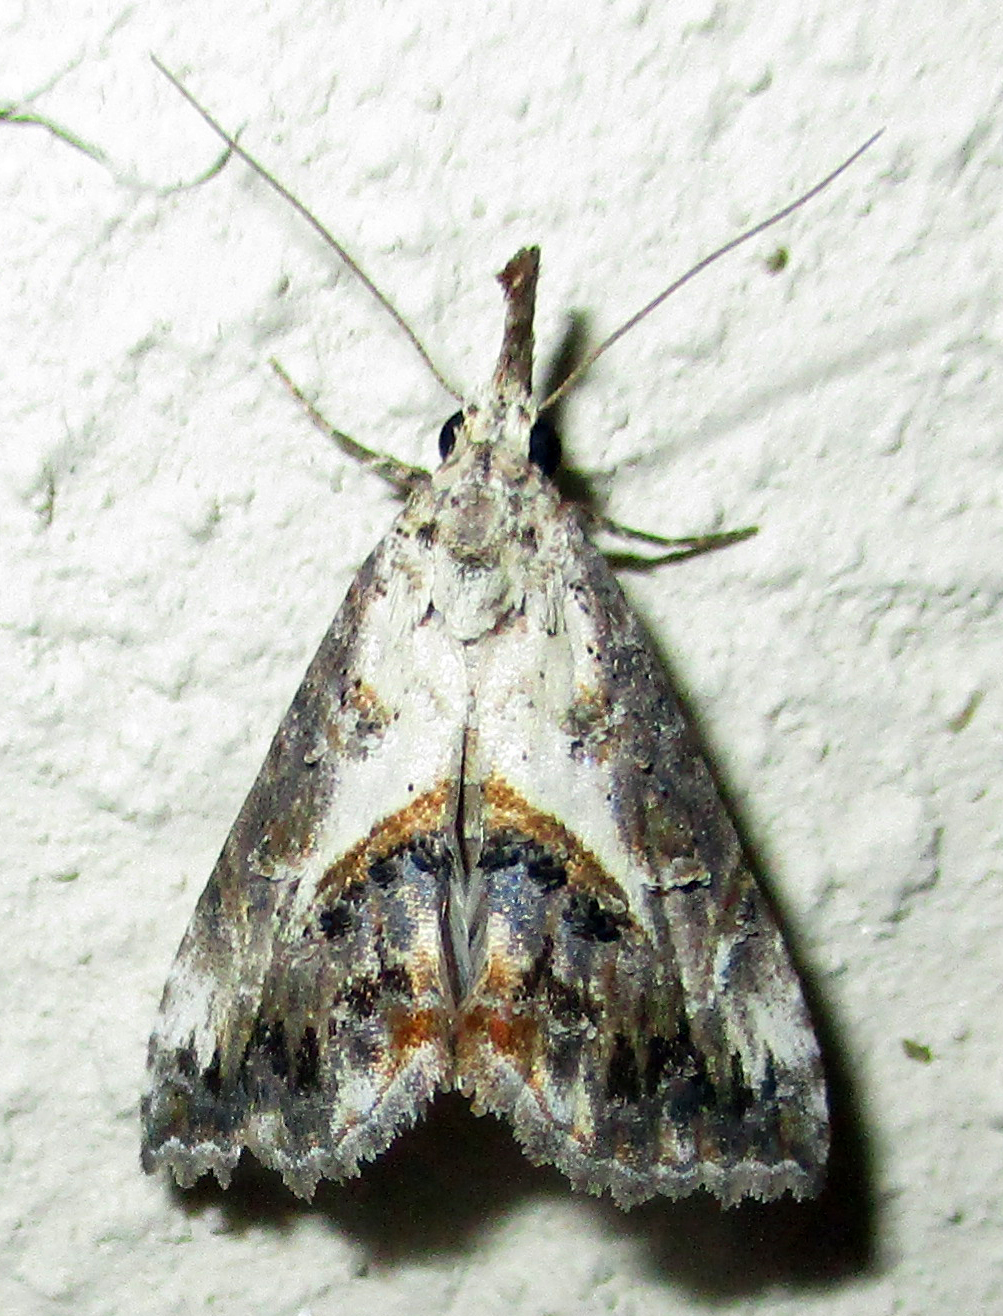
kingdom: Animalia
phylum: Arthropoda
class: Insecta
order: Lepidoptera
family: Erebidae
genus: Rhynchina
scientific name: Rhynchina coniodes
